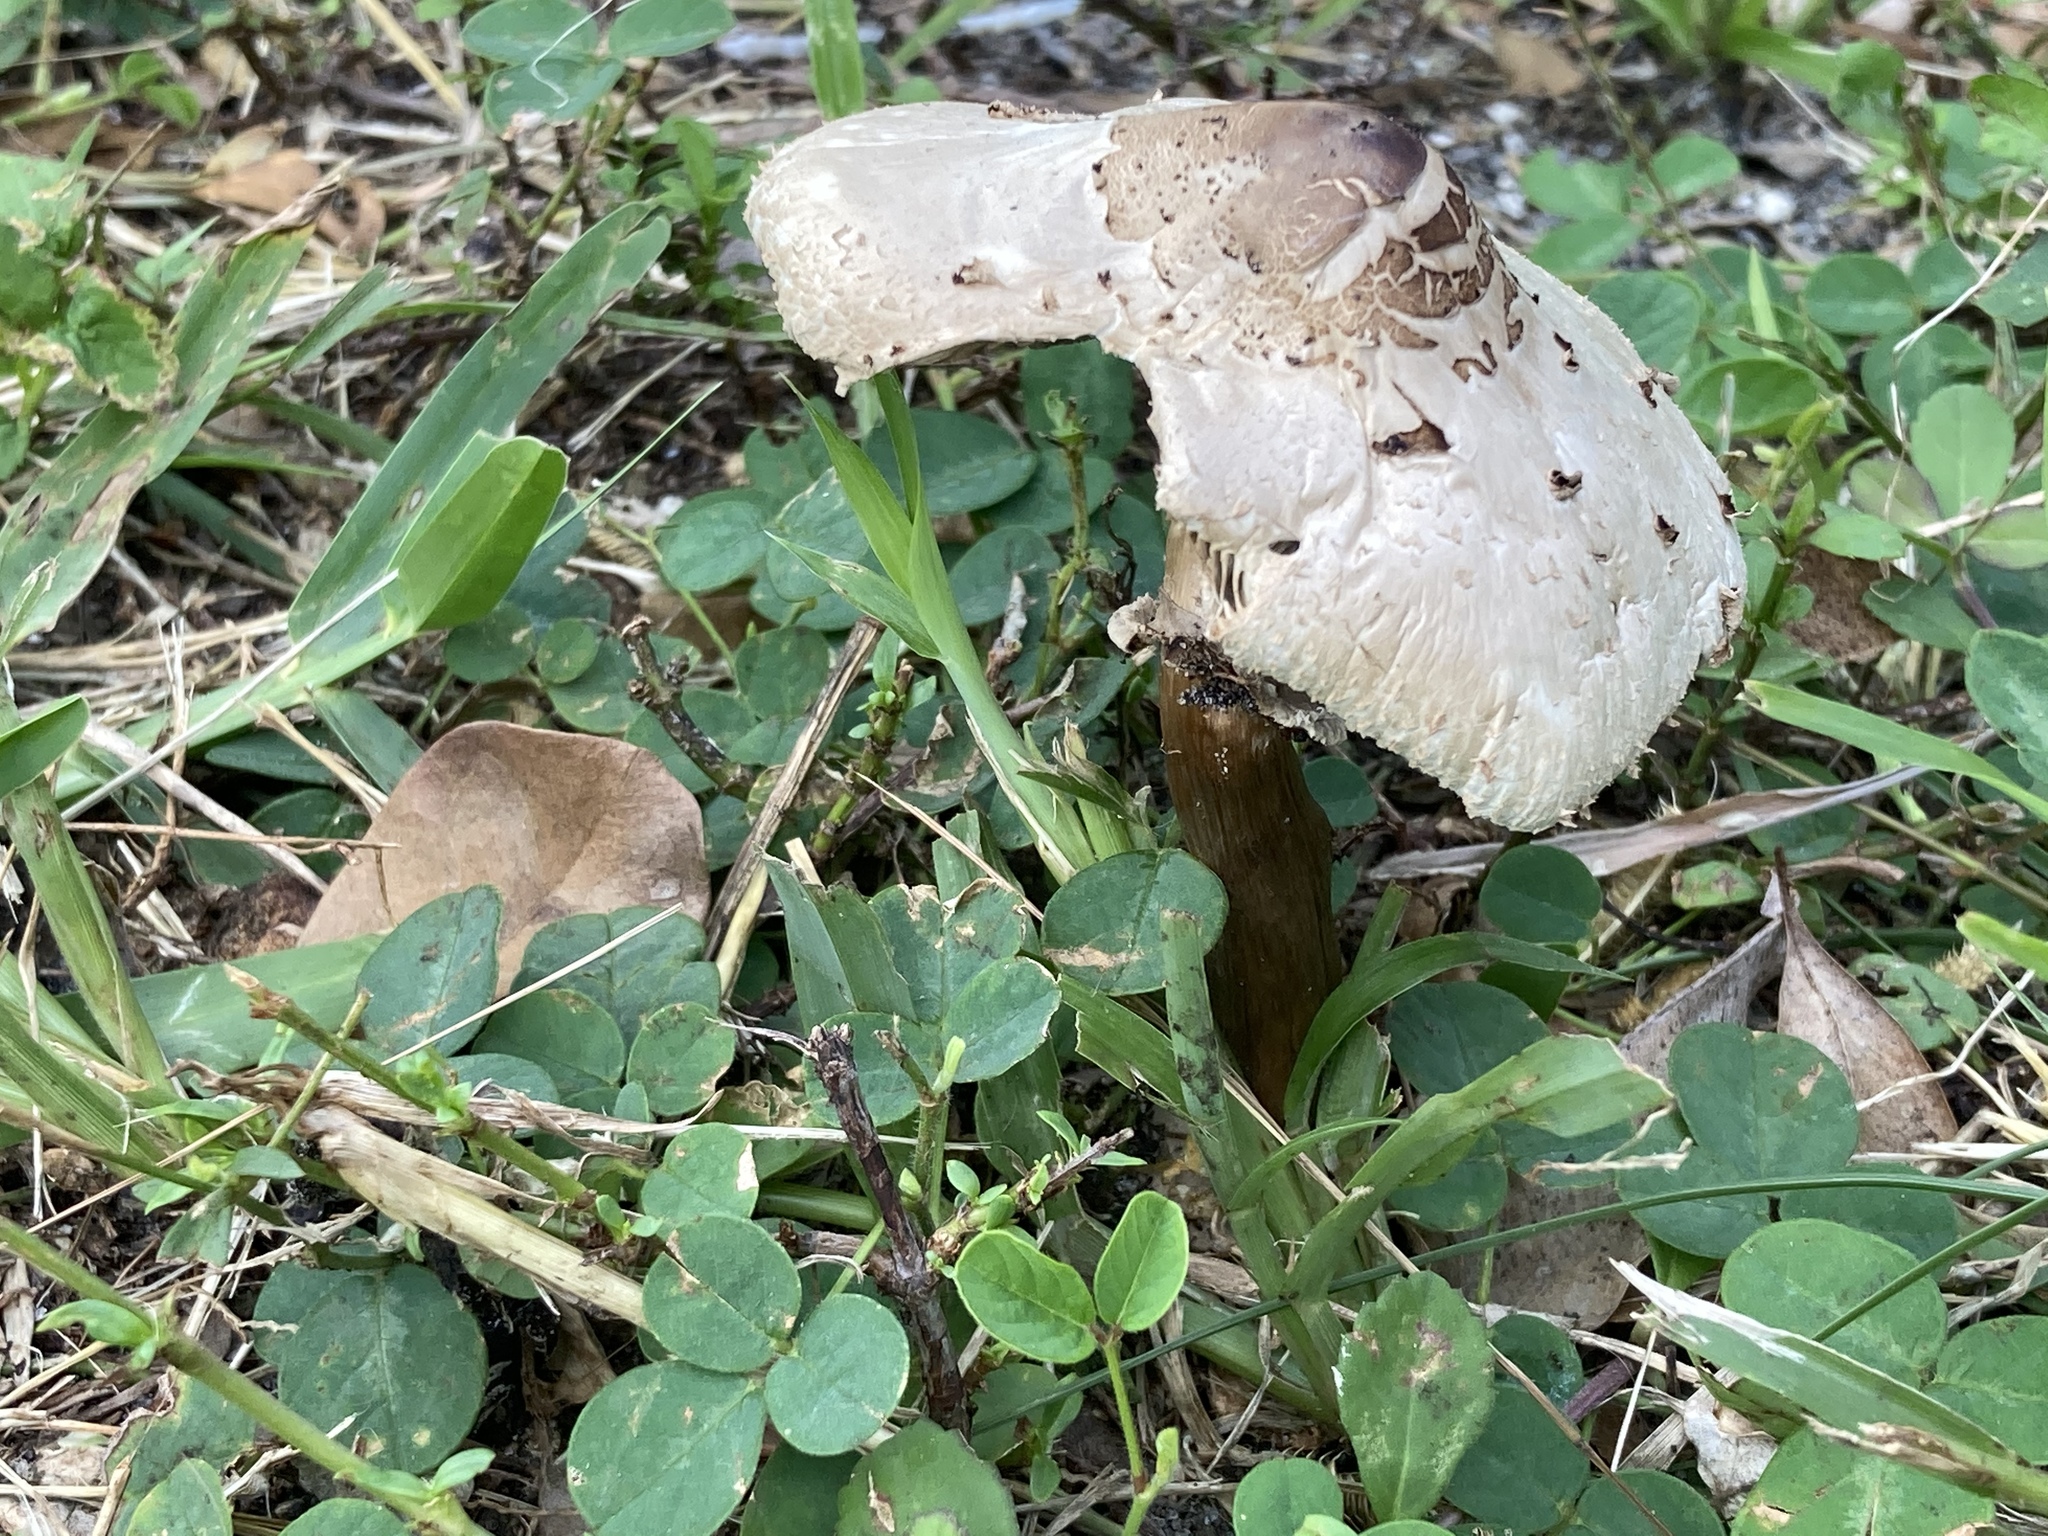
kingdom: Fungi
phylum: Basidiomycota
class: Agaricomycetes
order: Agaricales
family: Agaricaceae
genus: Chlorophyllum
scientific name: Chlorophyllum molybdites
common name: False parasol
